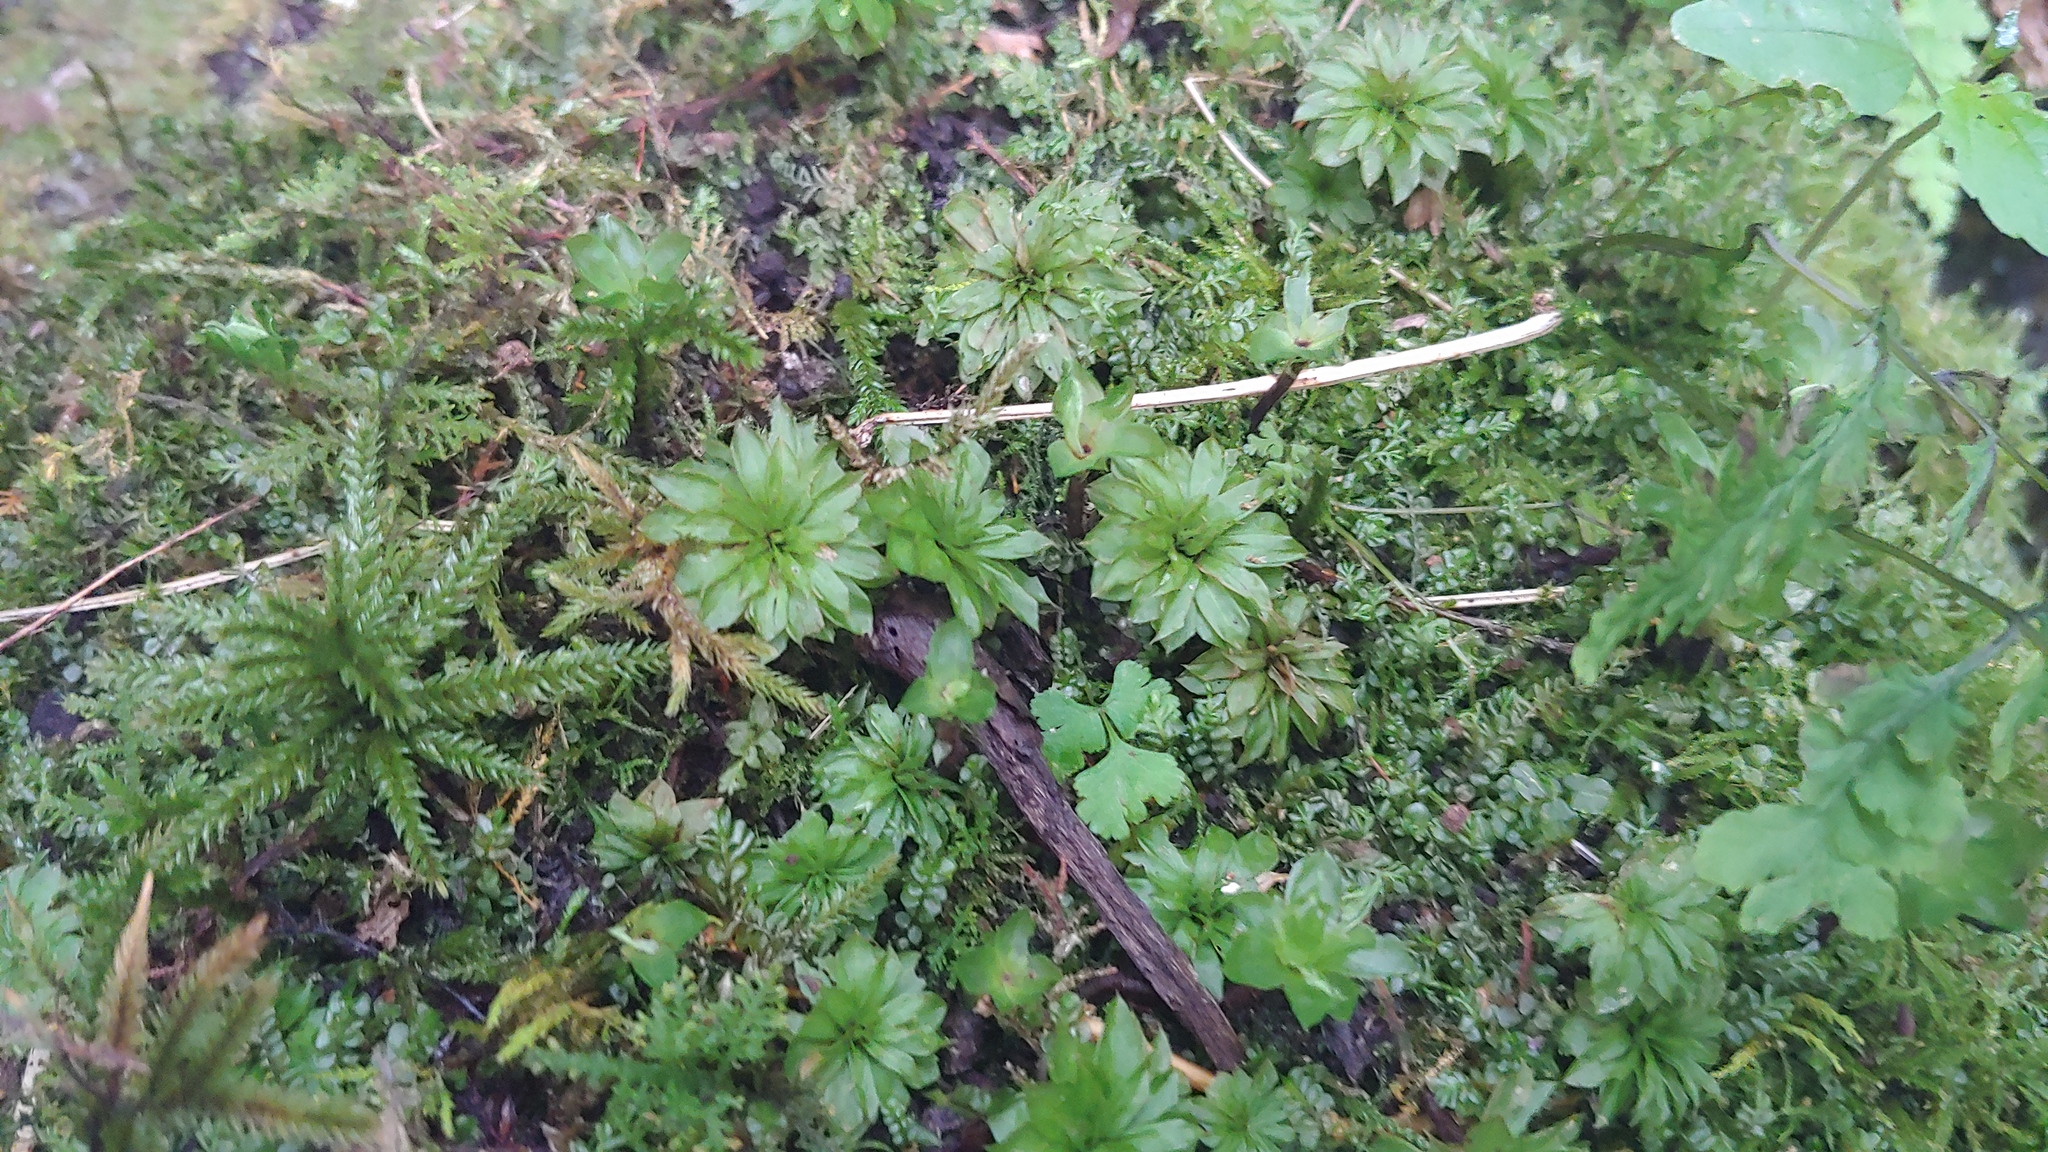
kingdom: Plantae
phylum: Bryophyta
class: Bryopsida
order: Bryales
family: Bryaceae
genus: Rhodobryum
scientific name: Rhodobryum ontariense
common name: Ontario rhodobryum moss
